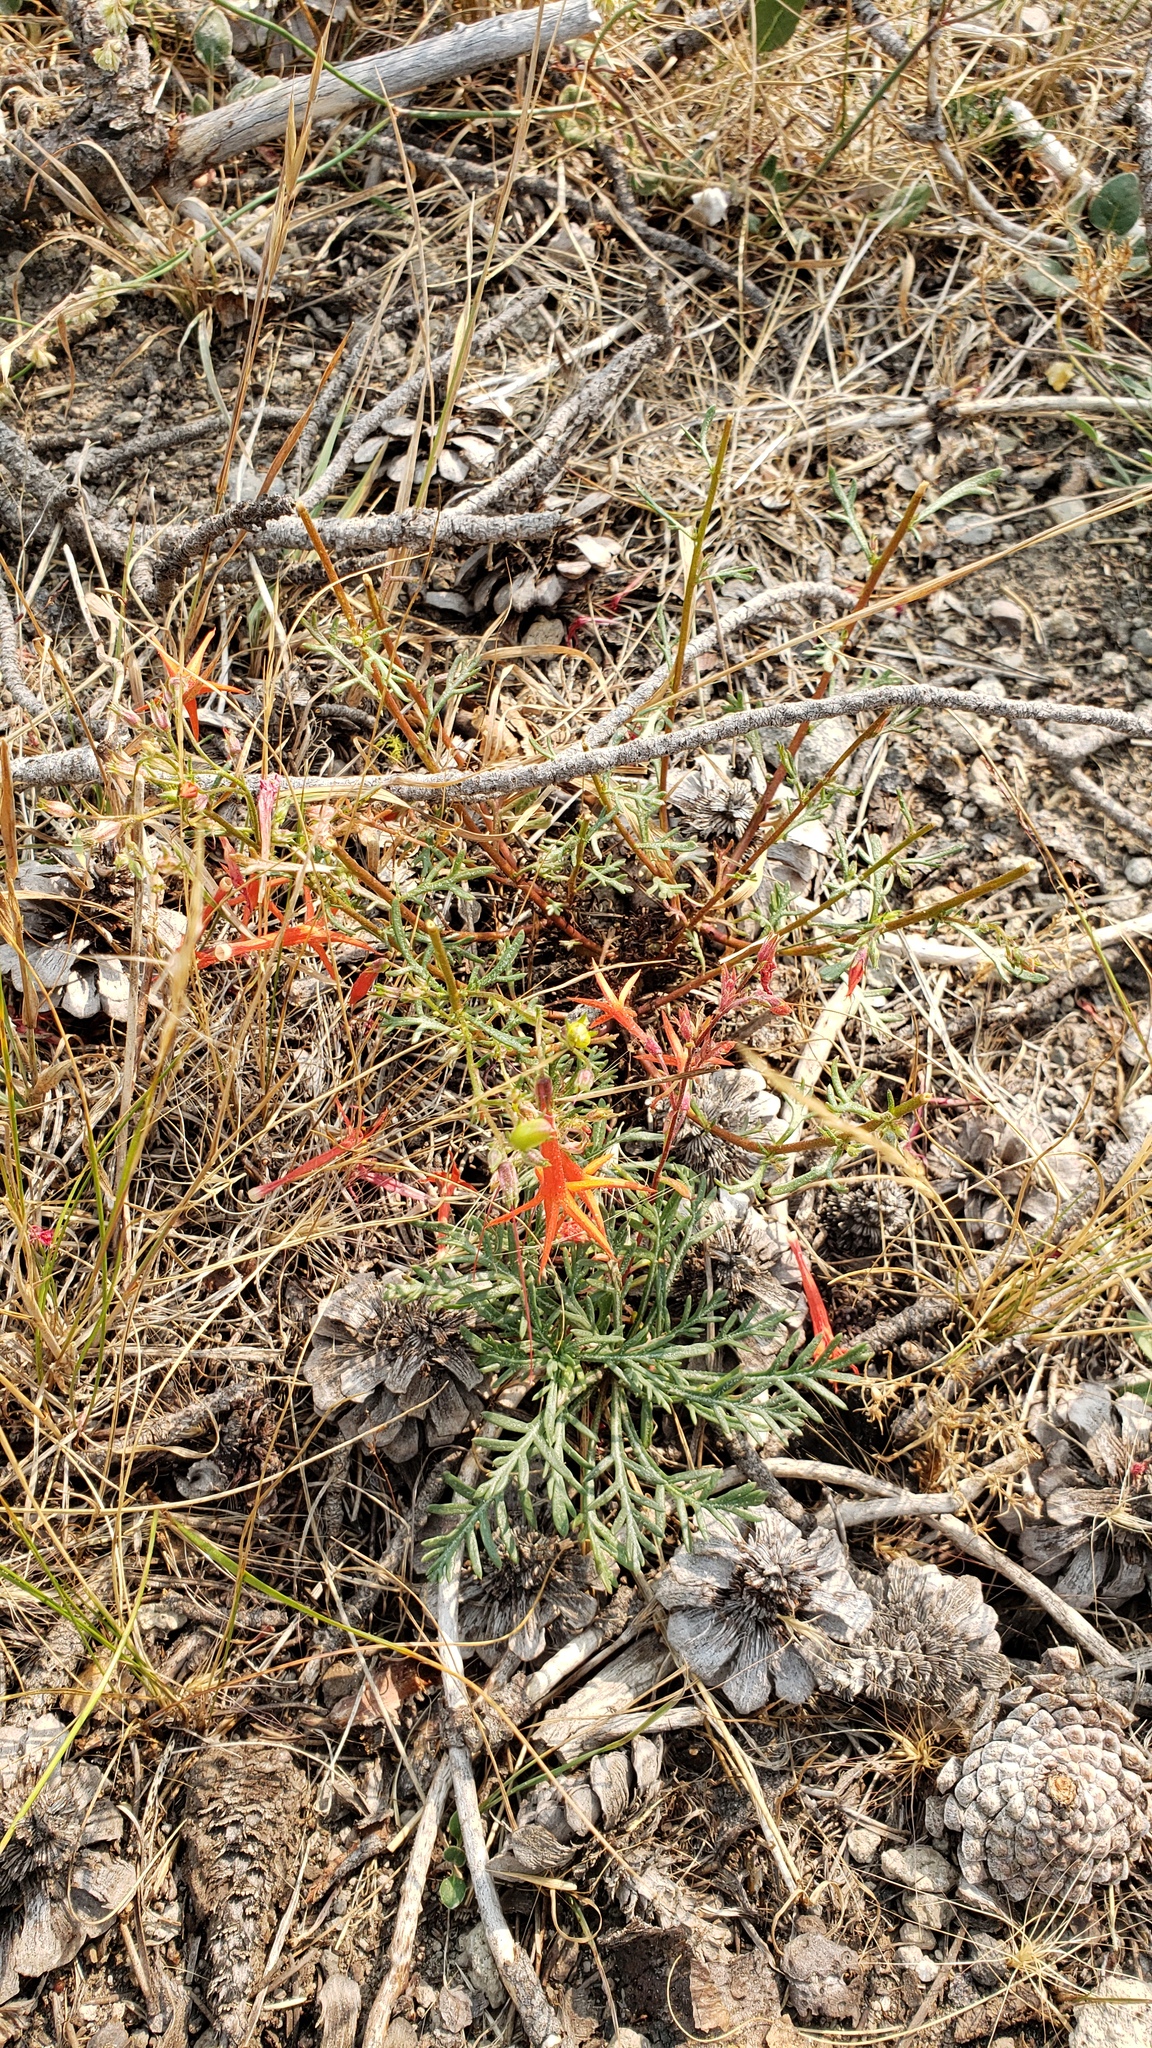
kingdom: Plantae
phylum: Tracheophyta
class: Magnoliopsida
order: Ericales
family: Polemoniaceae
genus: Ipomopsis
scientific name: Ipomopsis aggregata
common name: Scarlet gilia
